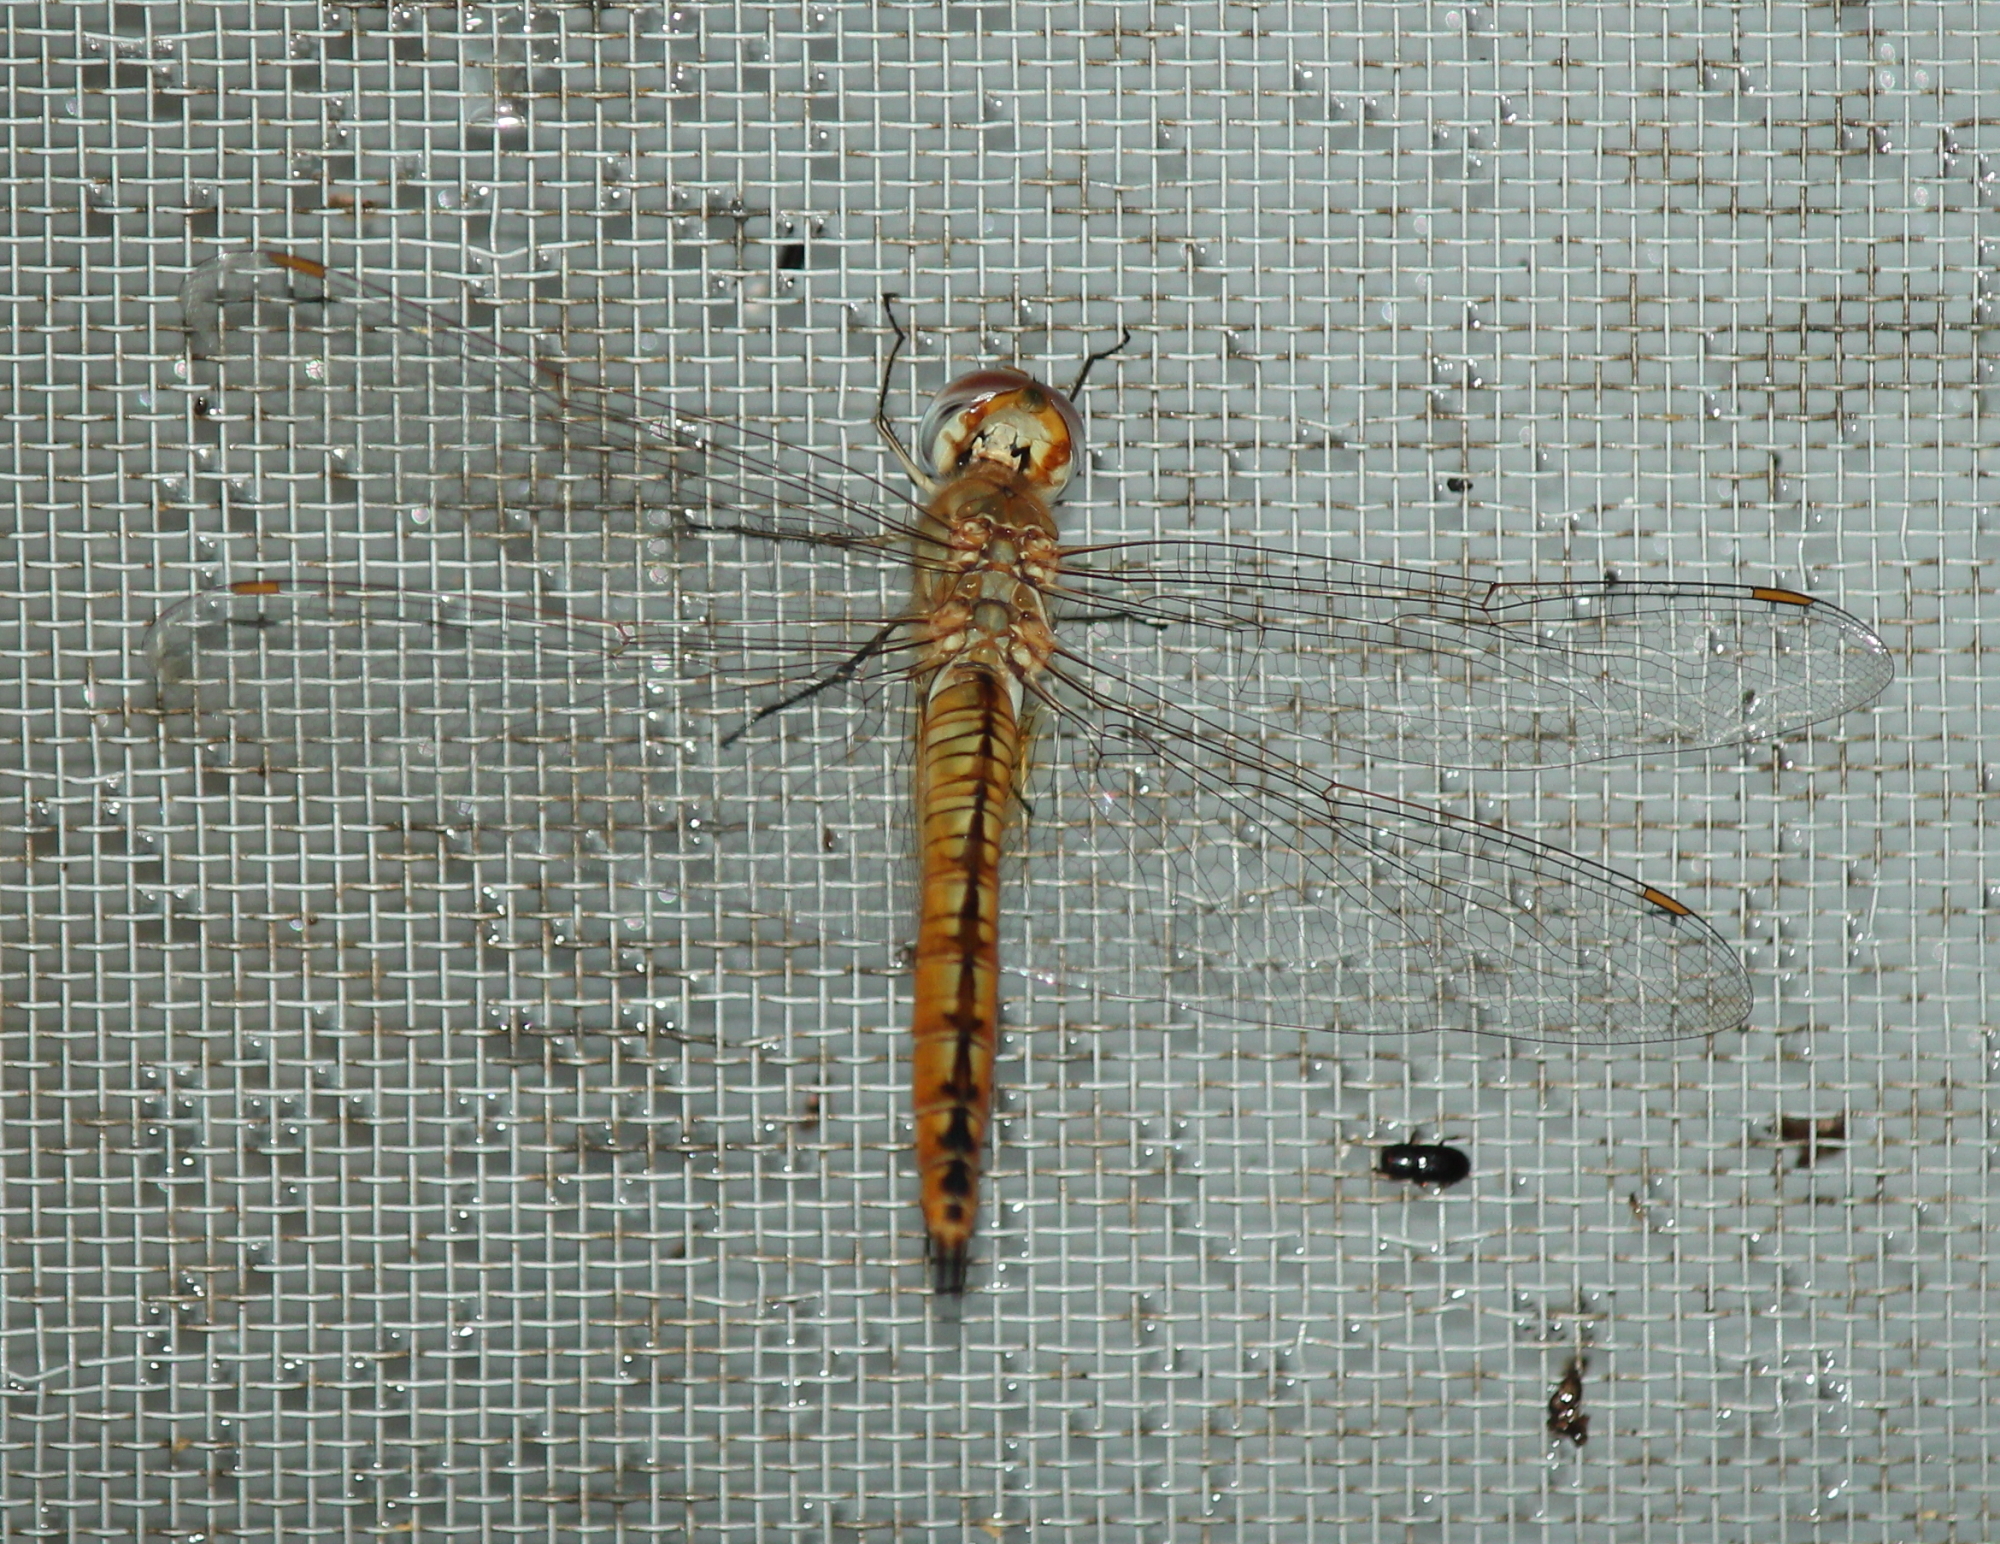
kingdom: Animalia
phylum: Arthropoda
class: Insecta
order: Odonata
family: Libellulidae
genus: Pantala
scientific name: Pantala flavescens
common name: Wandering glider
